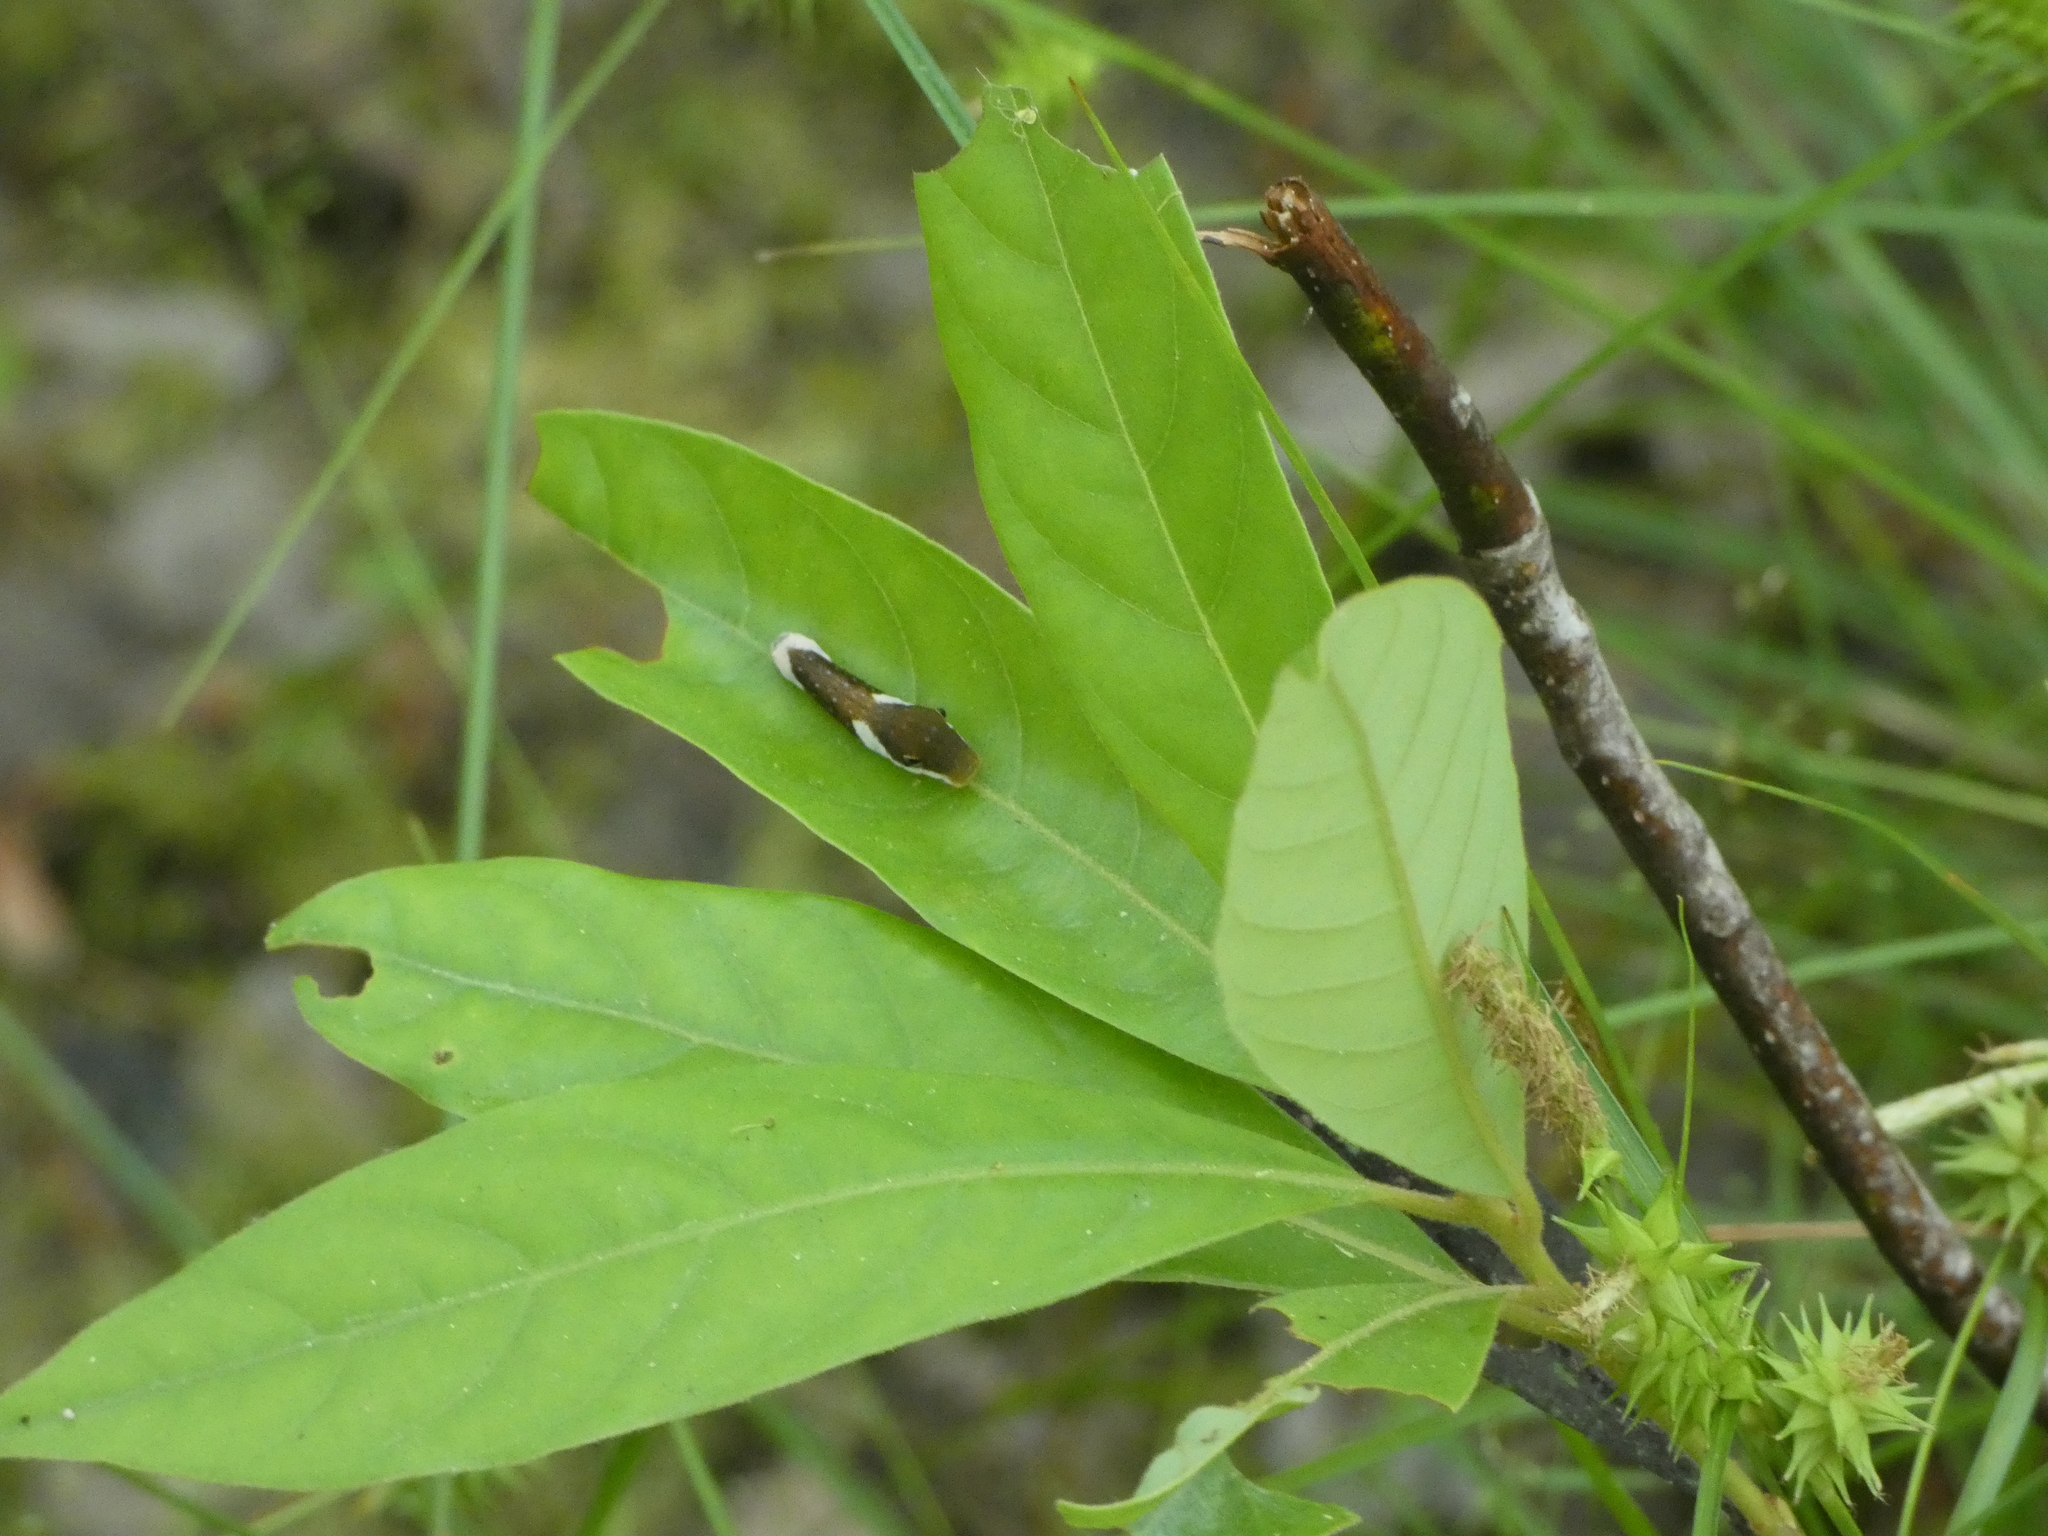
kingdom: Animalia
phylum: Arthropoda
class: Insecta
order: Lepidoptera
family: Papilionidae
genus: Papilio
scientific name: Papilio palamedes
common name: Palamedes swallowtail
